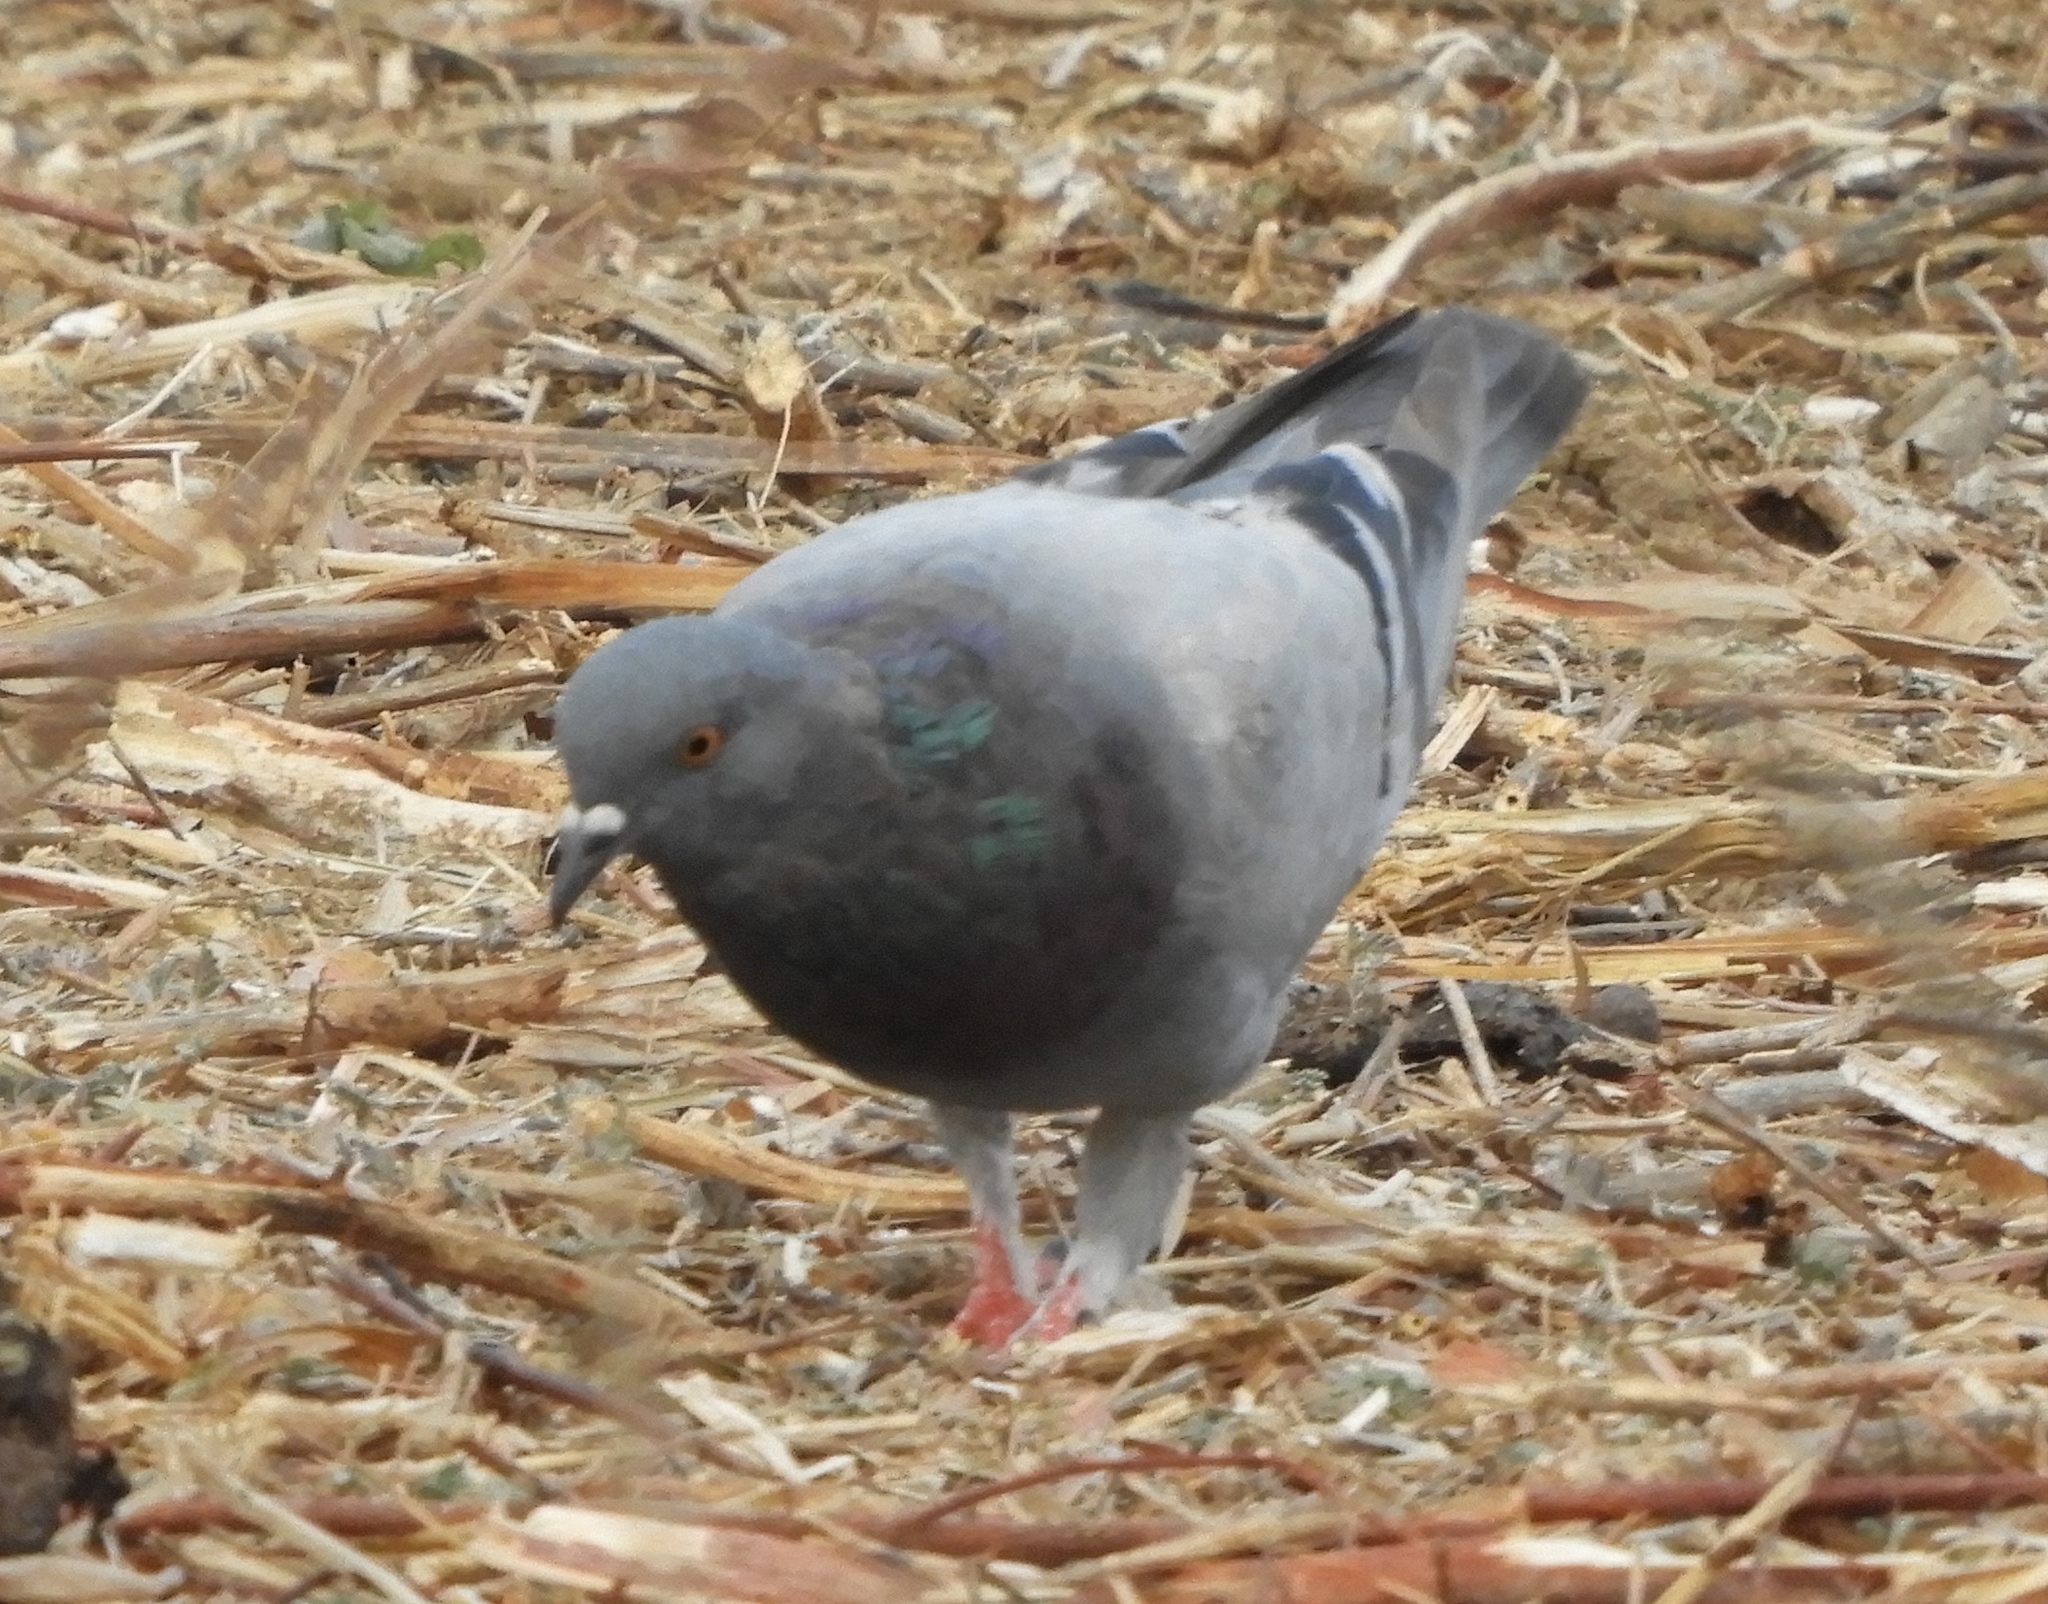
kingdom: Animalia
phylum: Chordata
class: Aves
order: Columbiformes
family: Columbidae
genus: Columba
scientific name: Columba livia
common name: Rock pigeon
